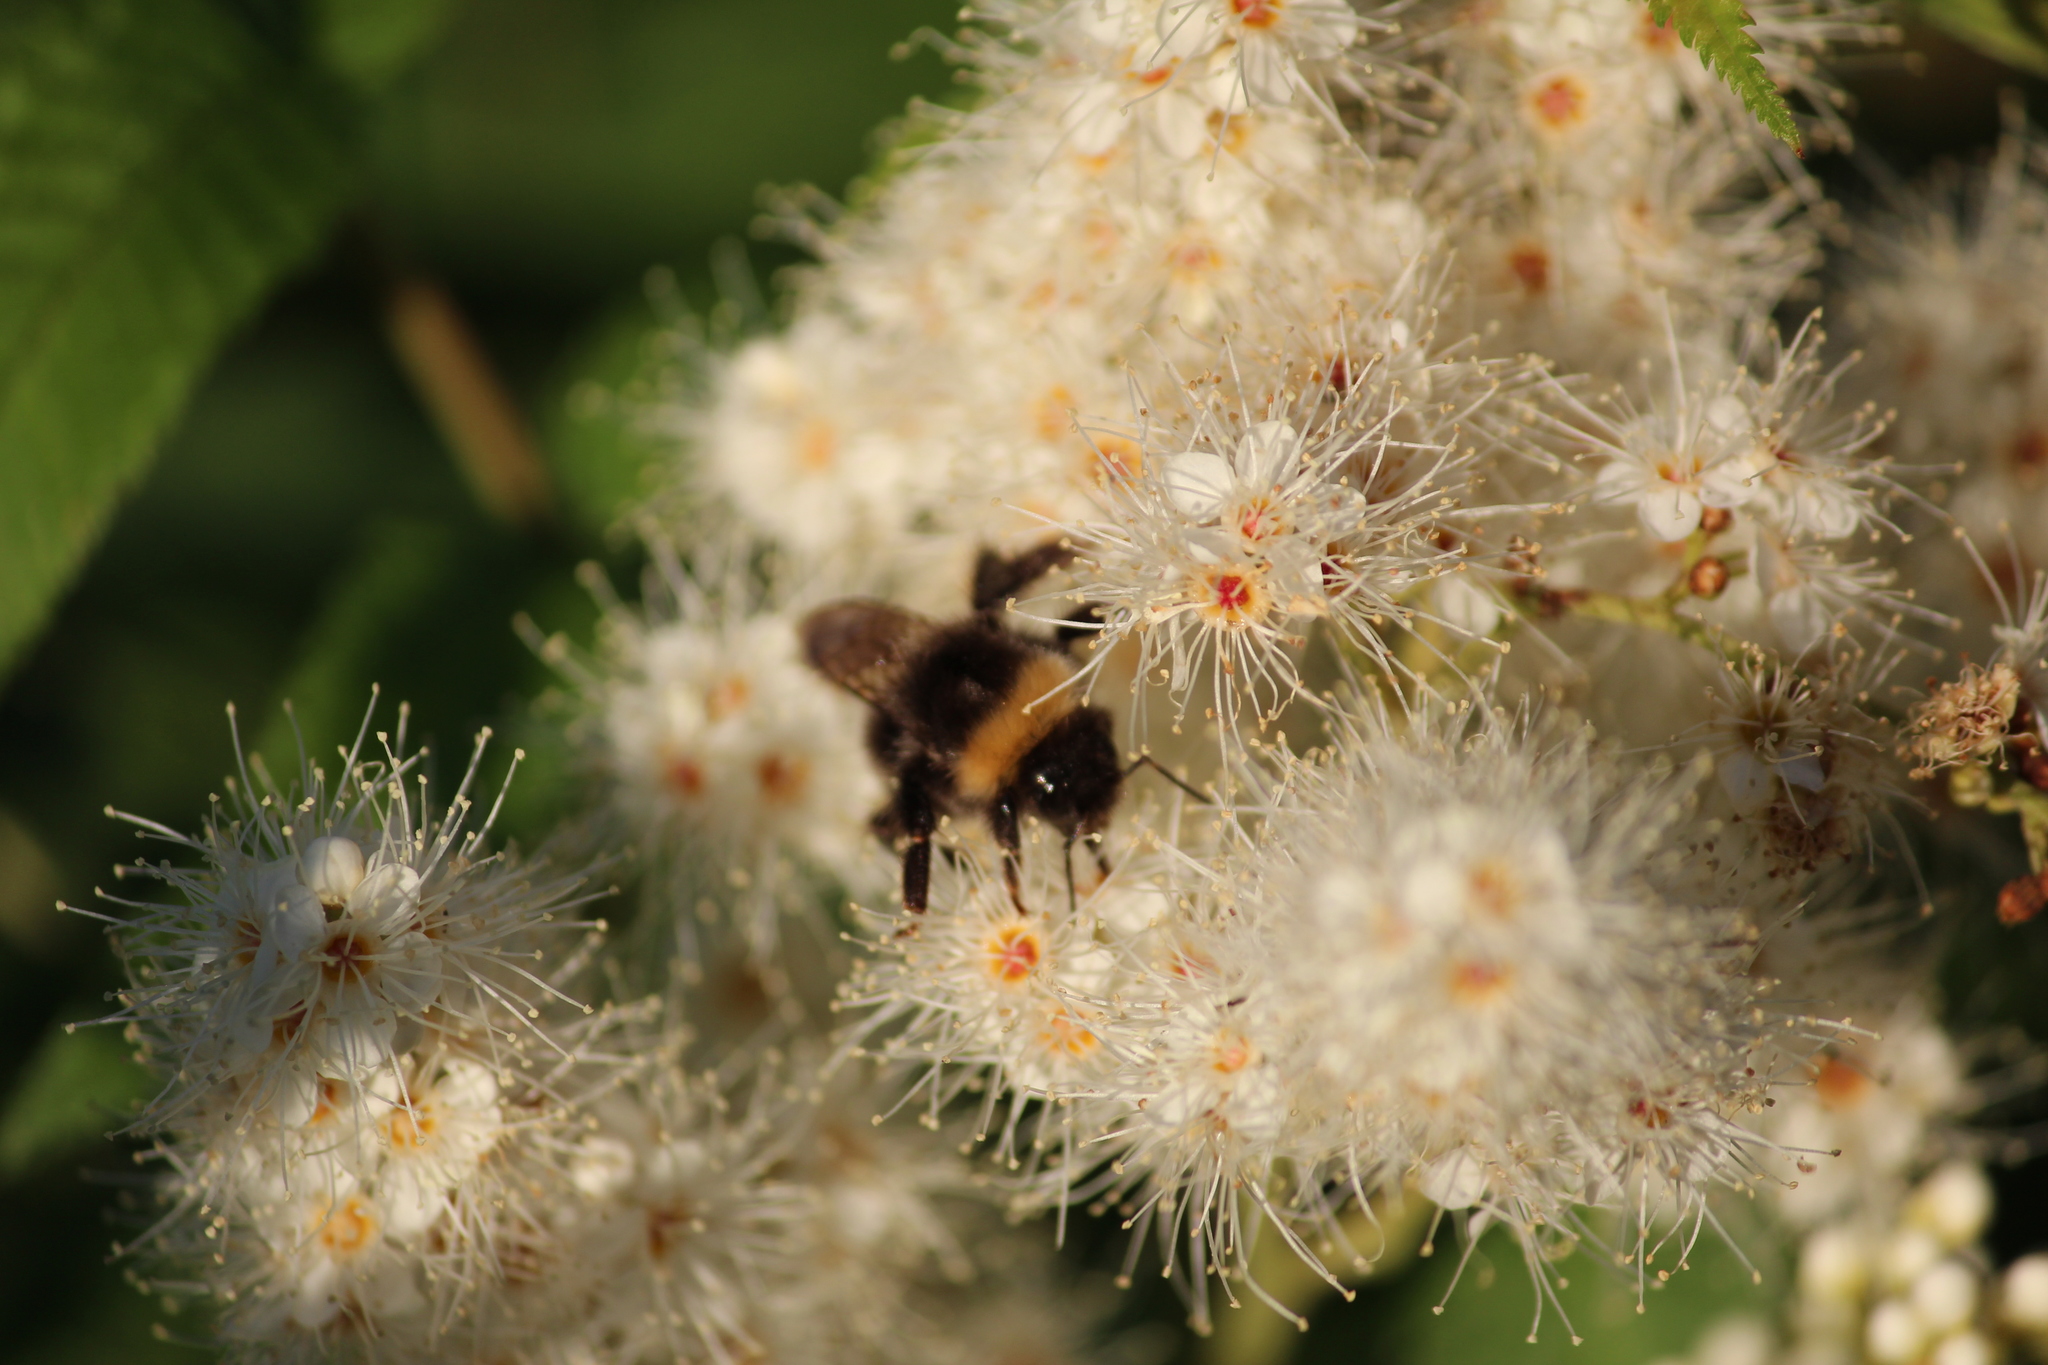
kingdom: Animalia
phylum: Arthropoda
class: Insecta
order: Hymenoptera
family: Apidae
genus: Bombus
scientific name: Bombus
